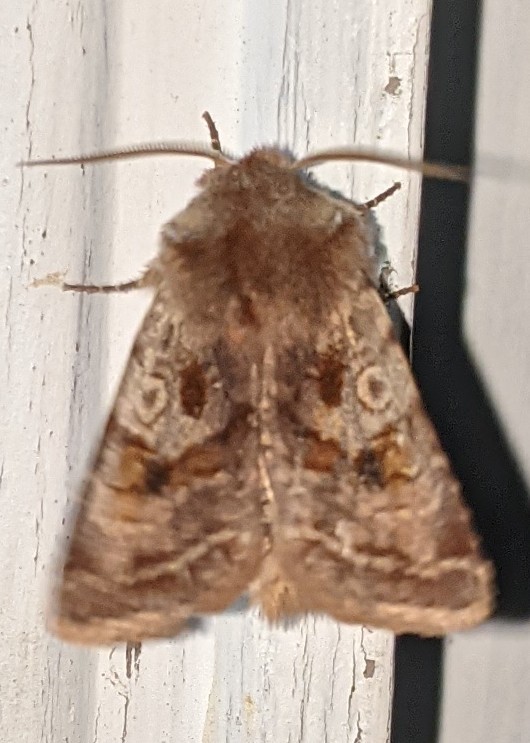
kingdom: Animalia
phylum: Arthropoda
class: Insecta
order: Lepidoptera
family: Noctuidae
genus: Cerastis
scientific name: Cerastis salicarum
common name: Willow dart
